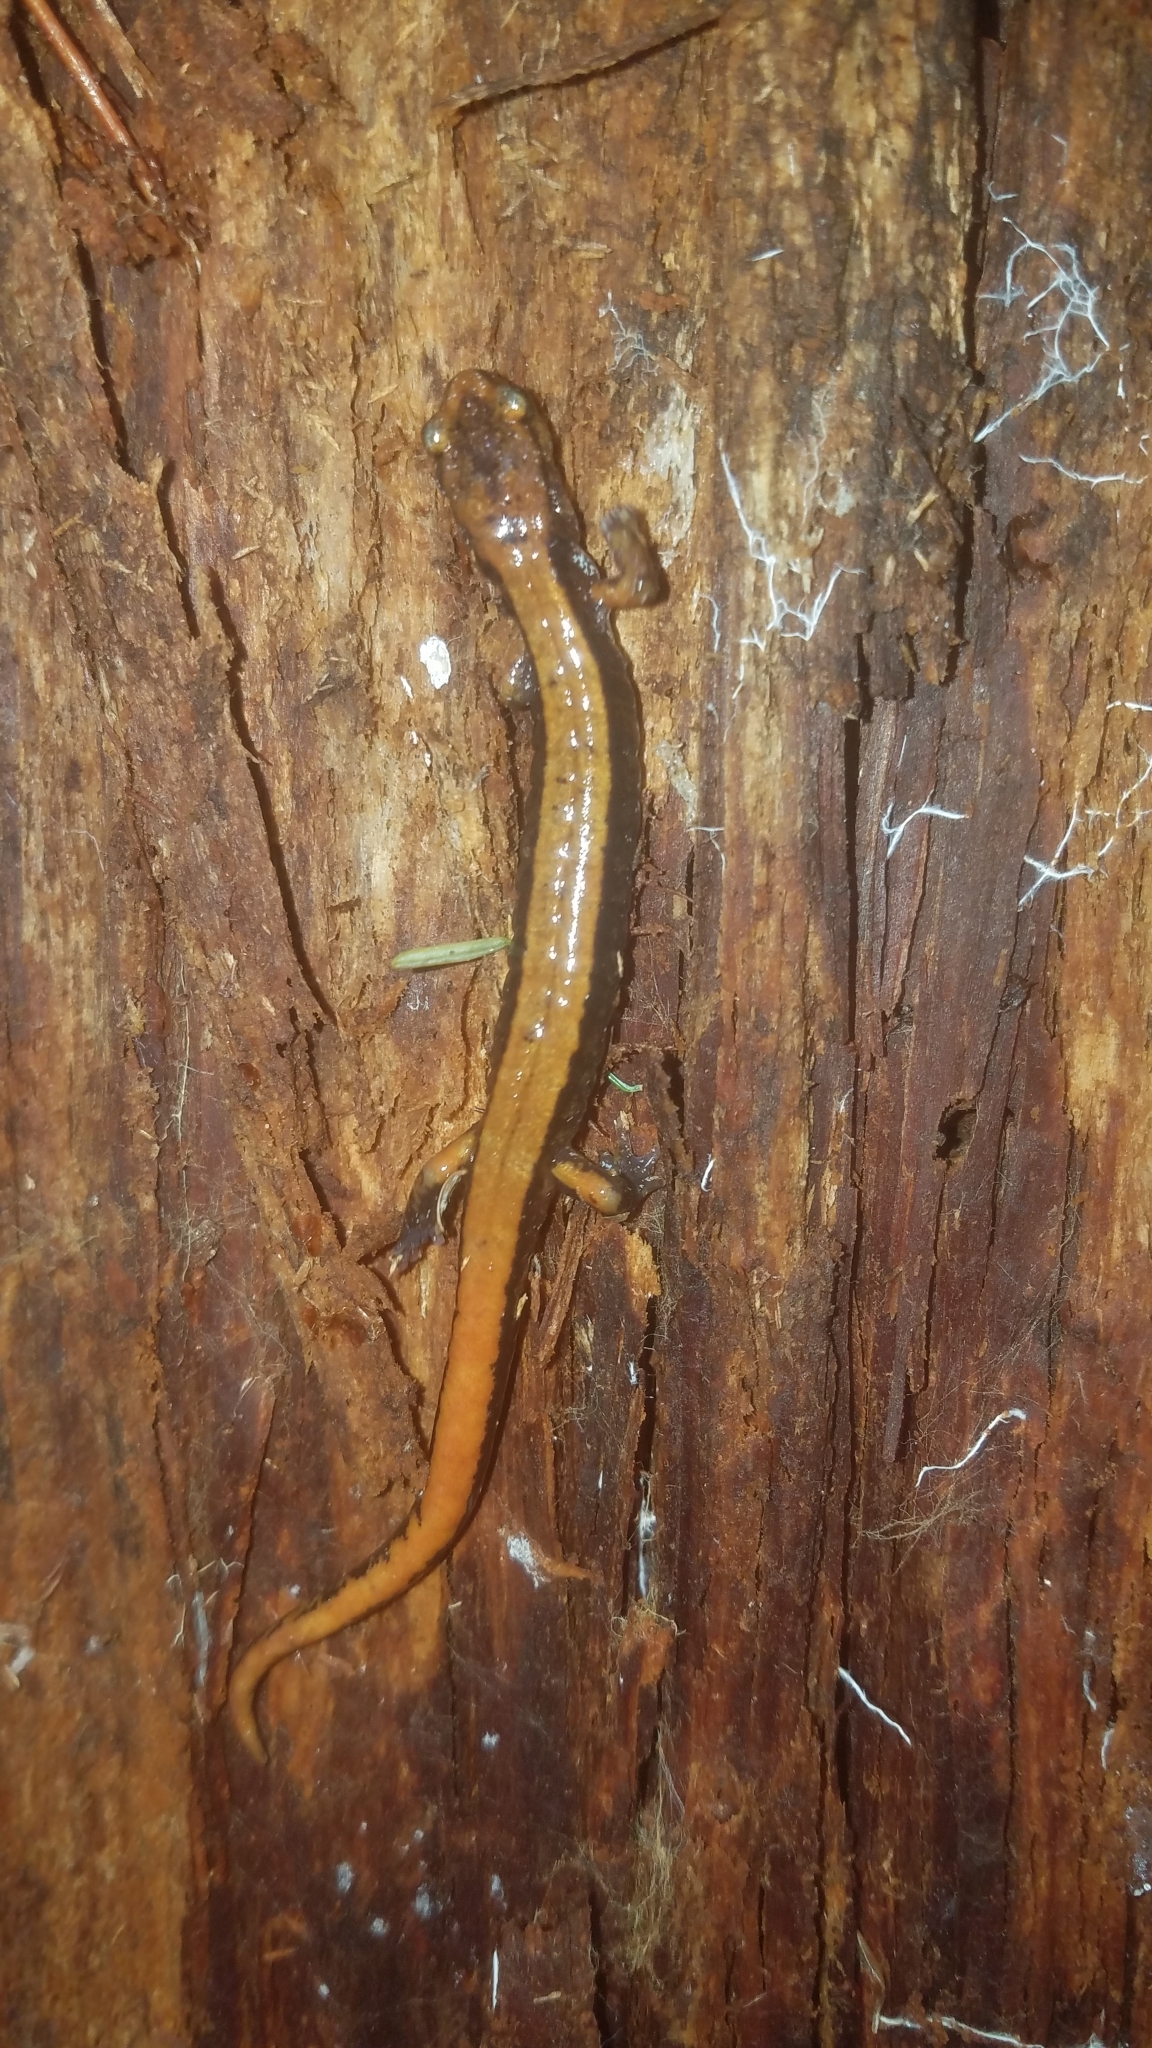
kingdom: Animalia
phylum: Chordata
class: Amphibia
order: Caudata
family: Plethodontidae
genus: Plethodon
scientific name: Plethodon vehiculum
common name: Western red-backed salamander
